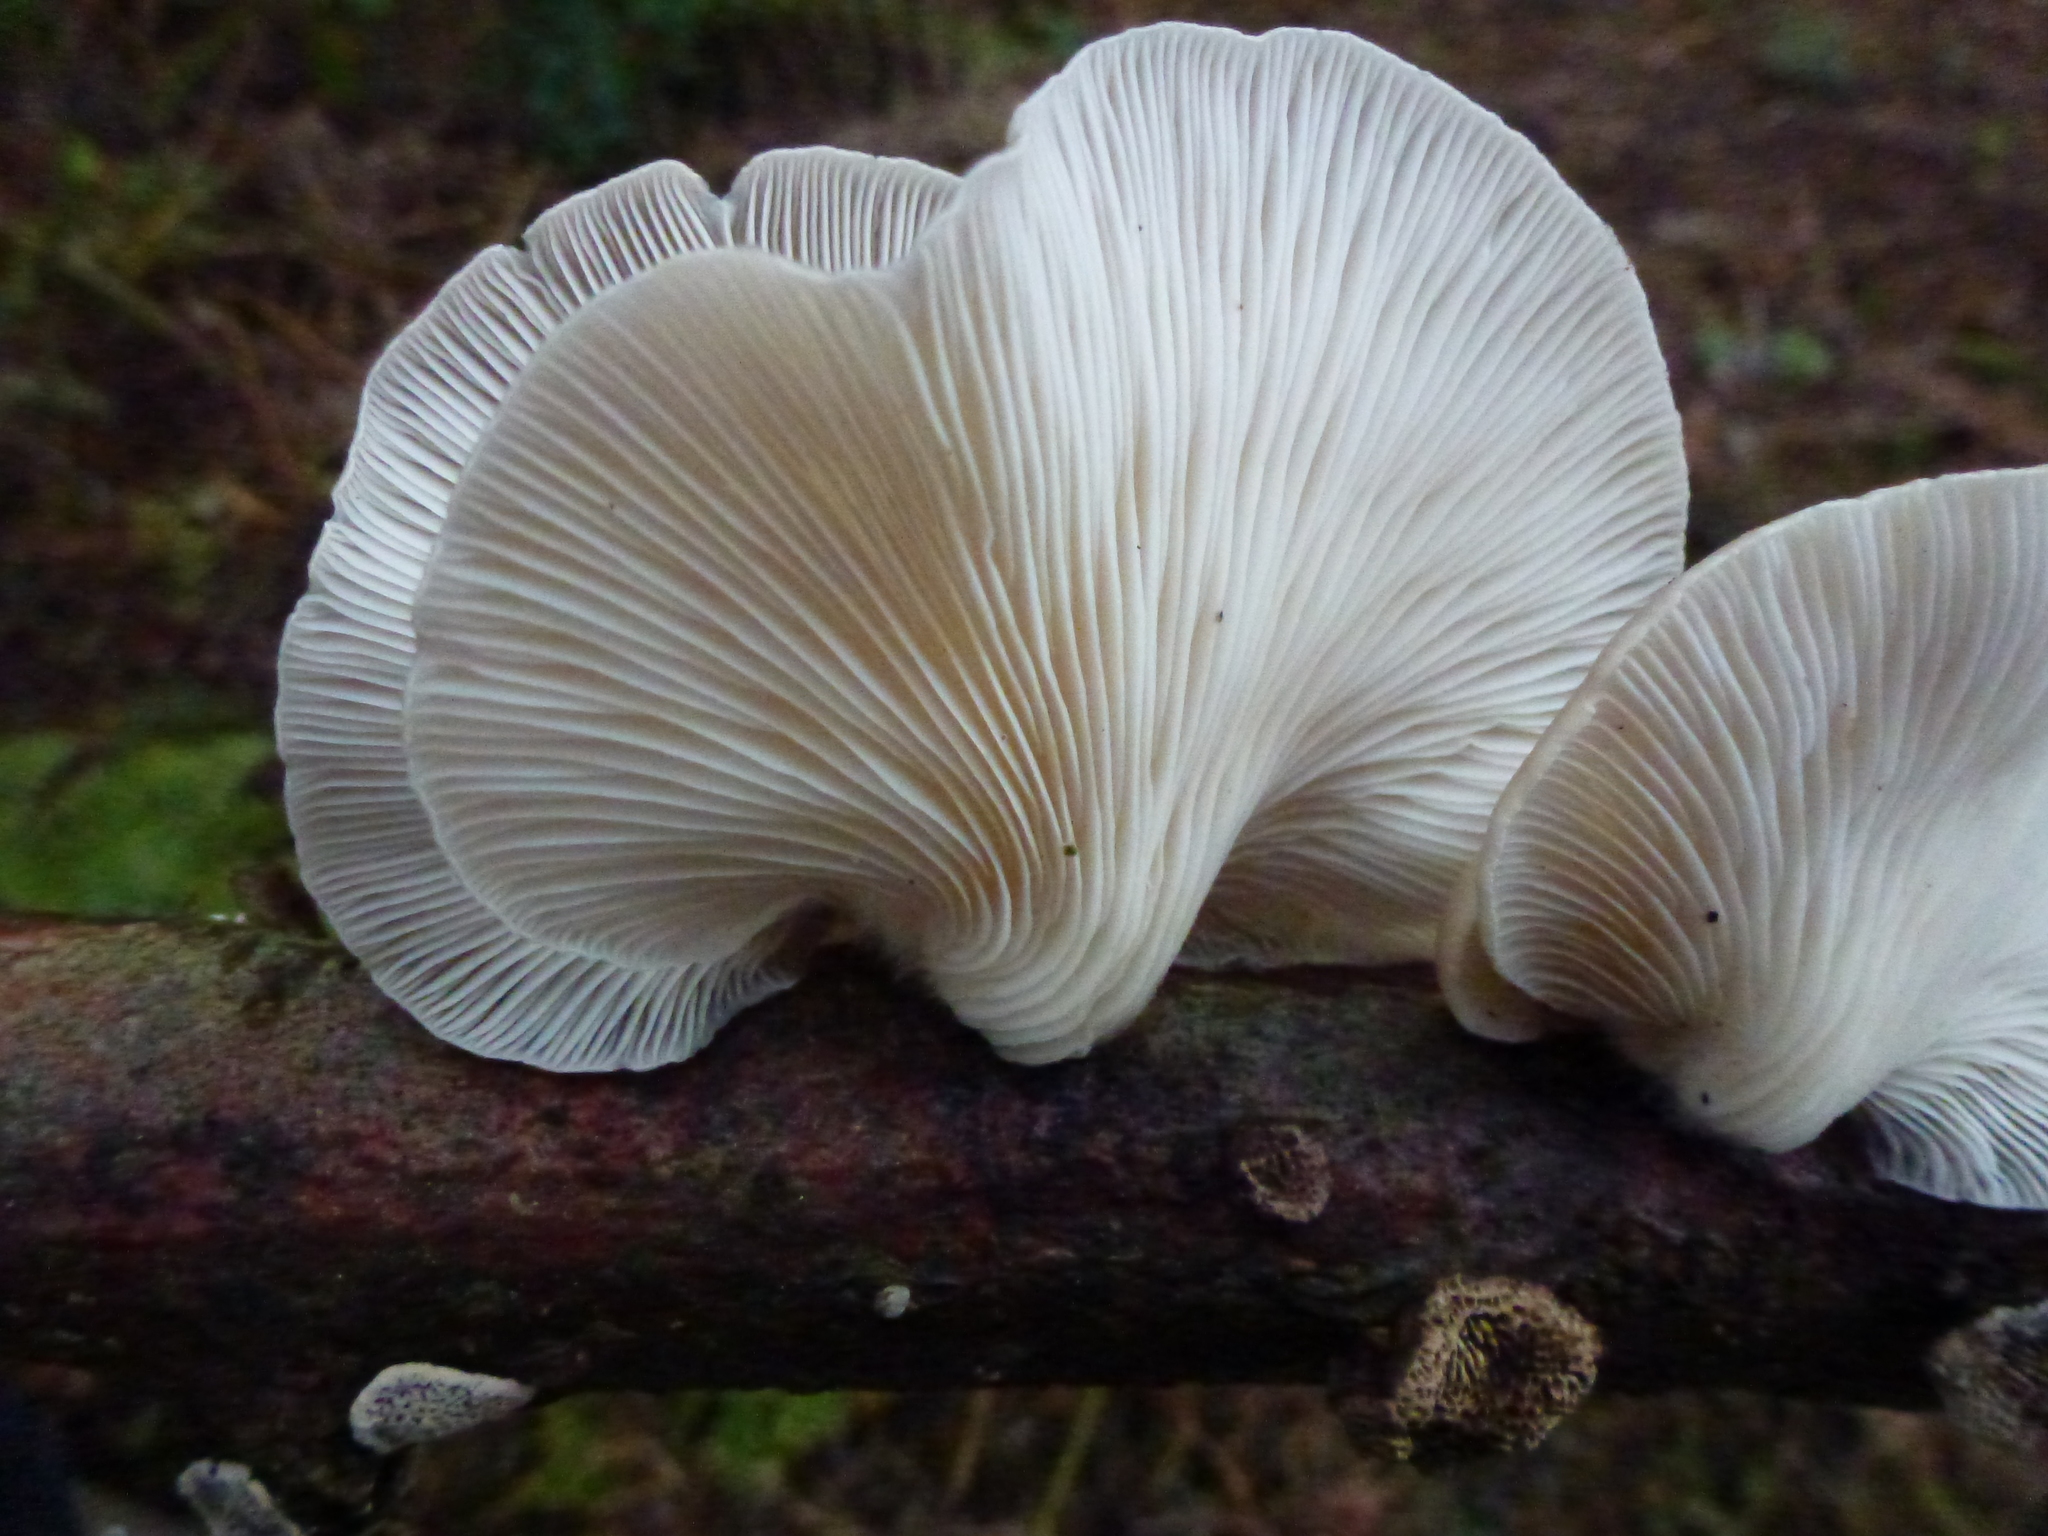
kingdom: Fungi
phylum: Basidiomycota
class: Agaricomycetes
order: Agaricales
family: Pleurotaceae
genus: Pleurotus
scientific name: Pleurotus ostreatus
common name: Oyster mushroom
